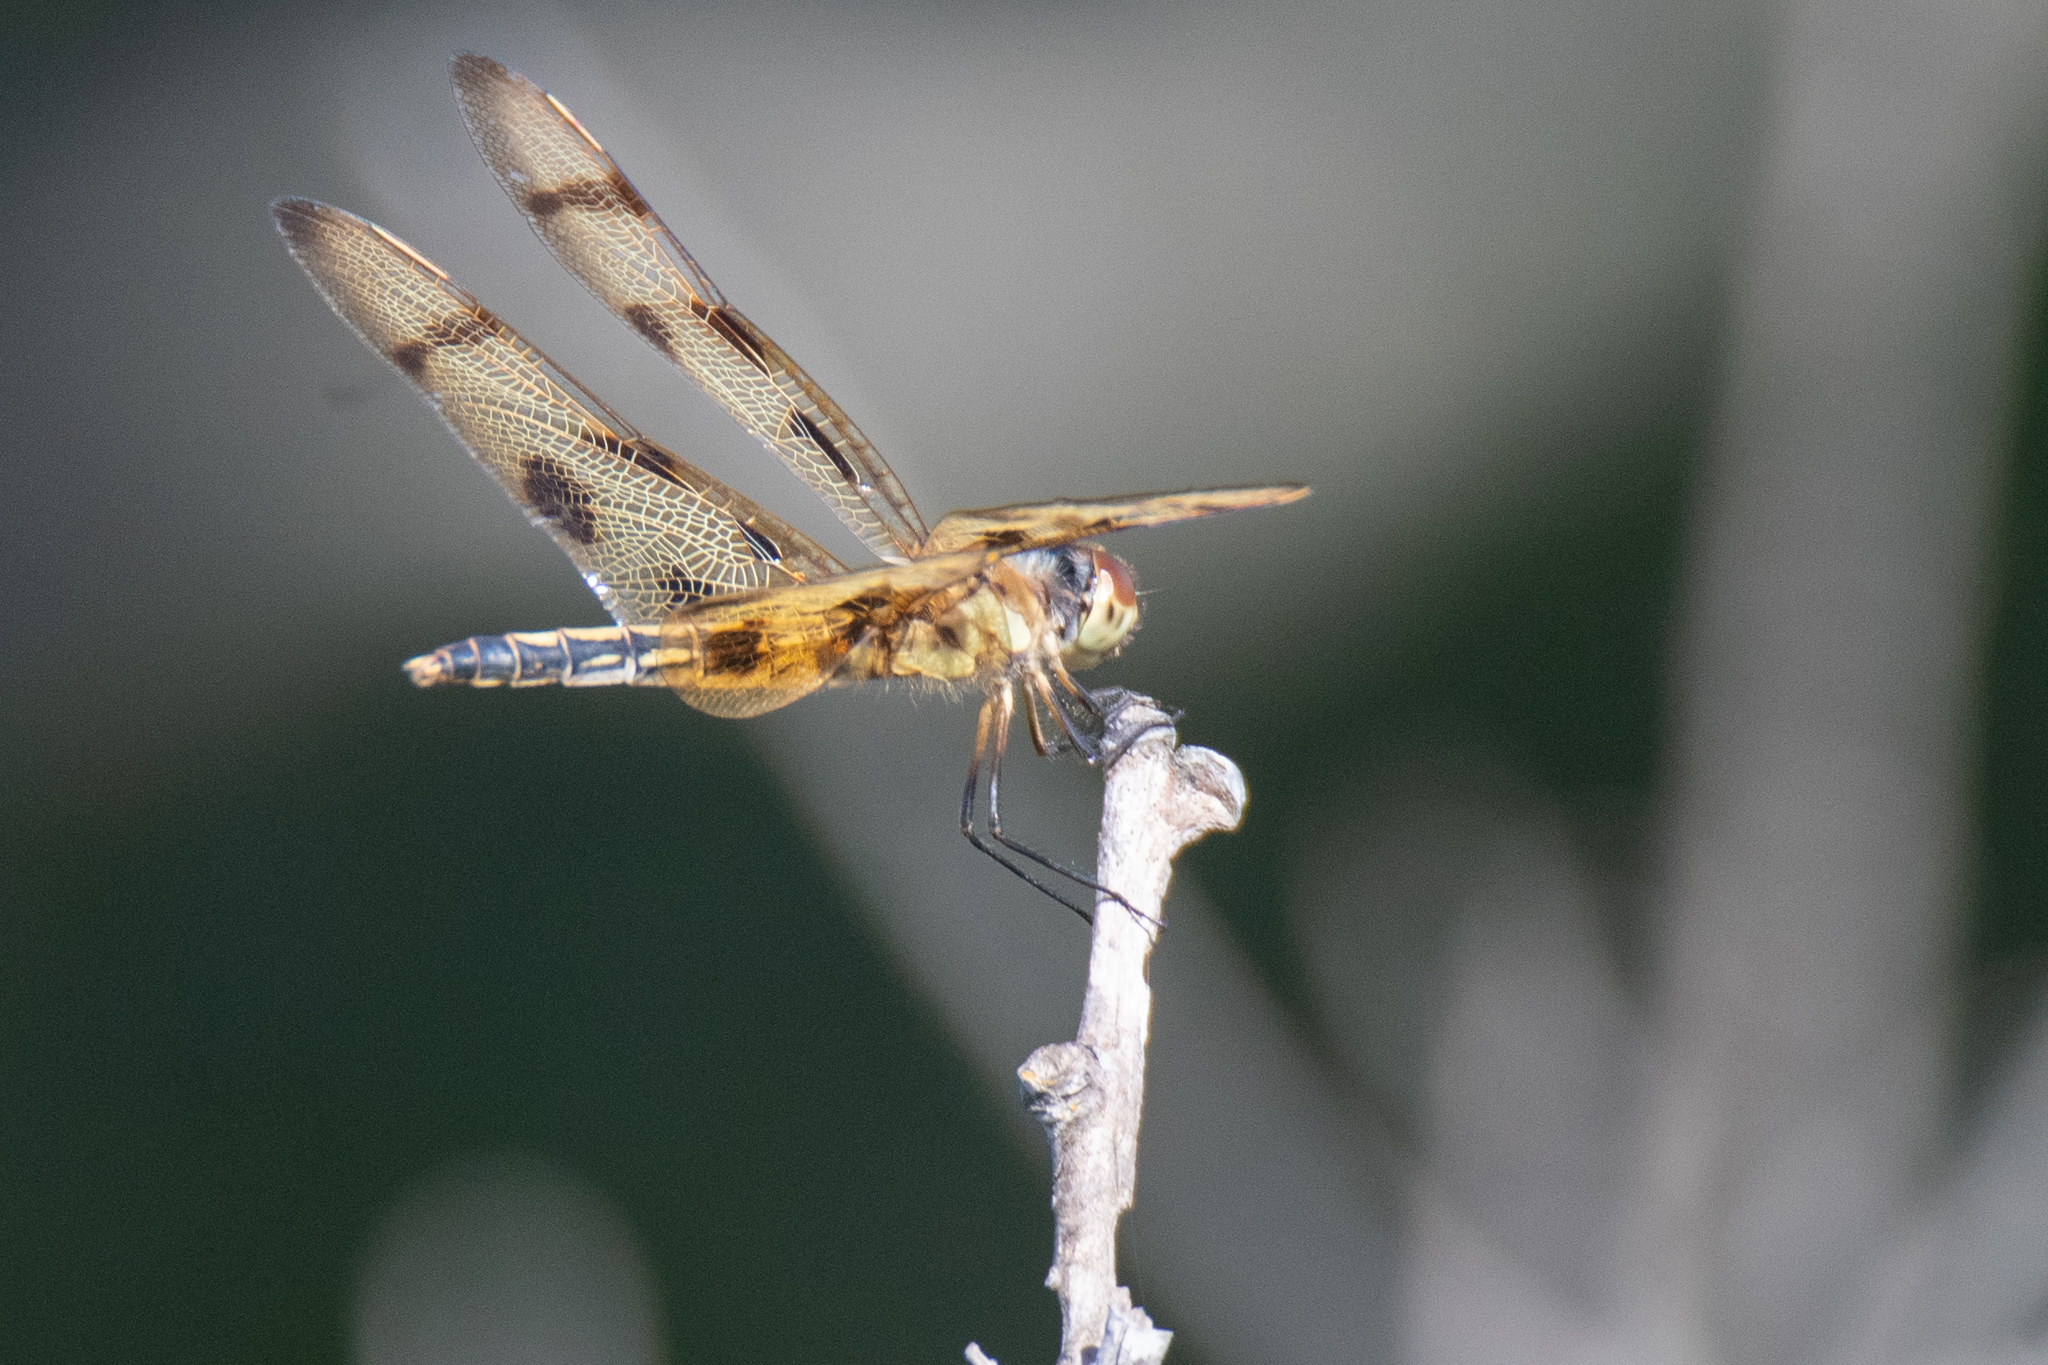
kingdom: Animalia
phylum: Arthropoda
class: Insecta
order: Odonata
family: Libellulidae
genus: Celithemis
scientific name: Celithemis eponina
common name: Halloween pennant
